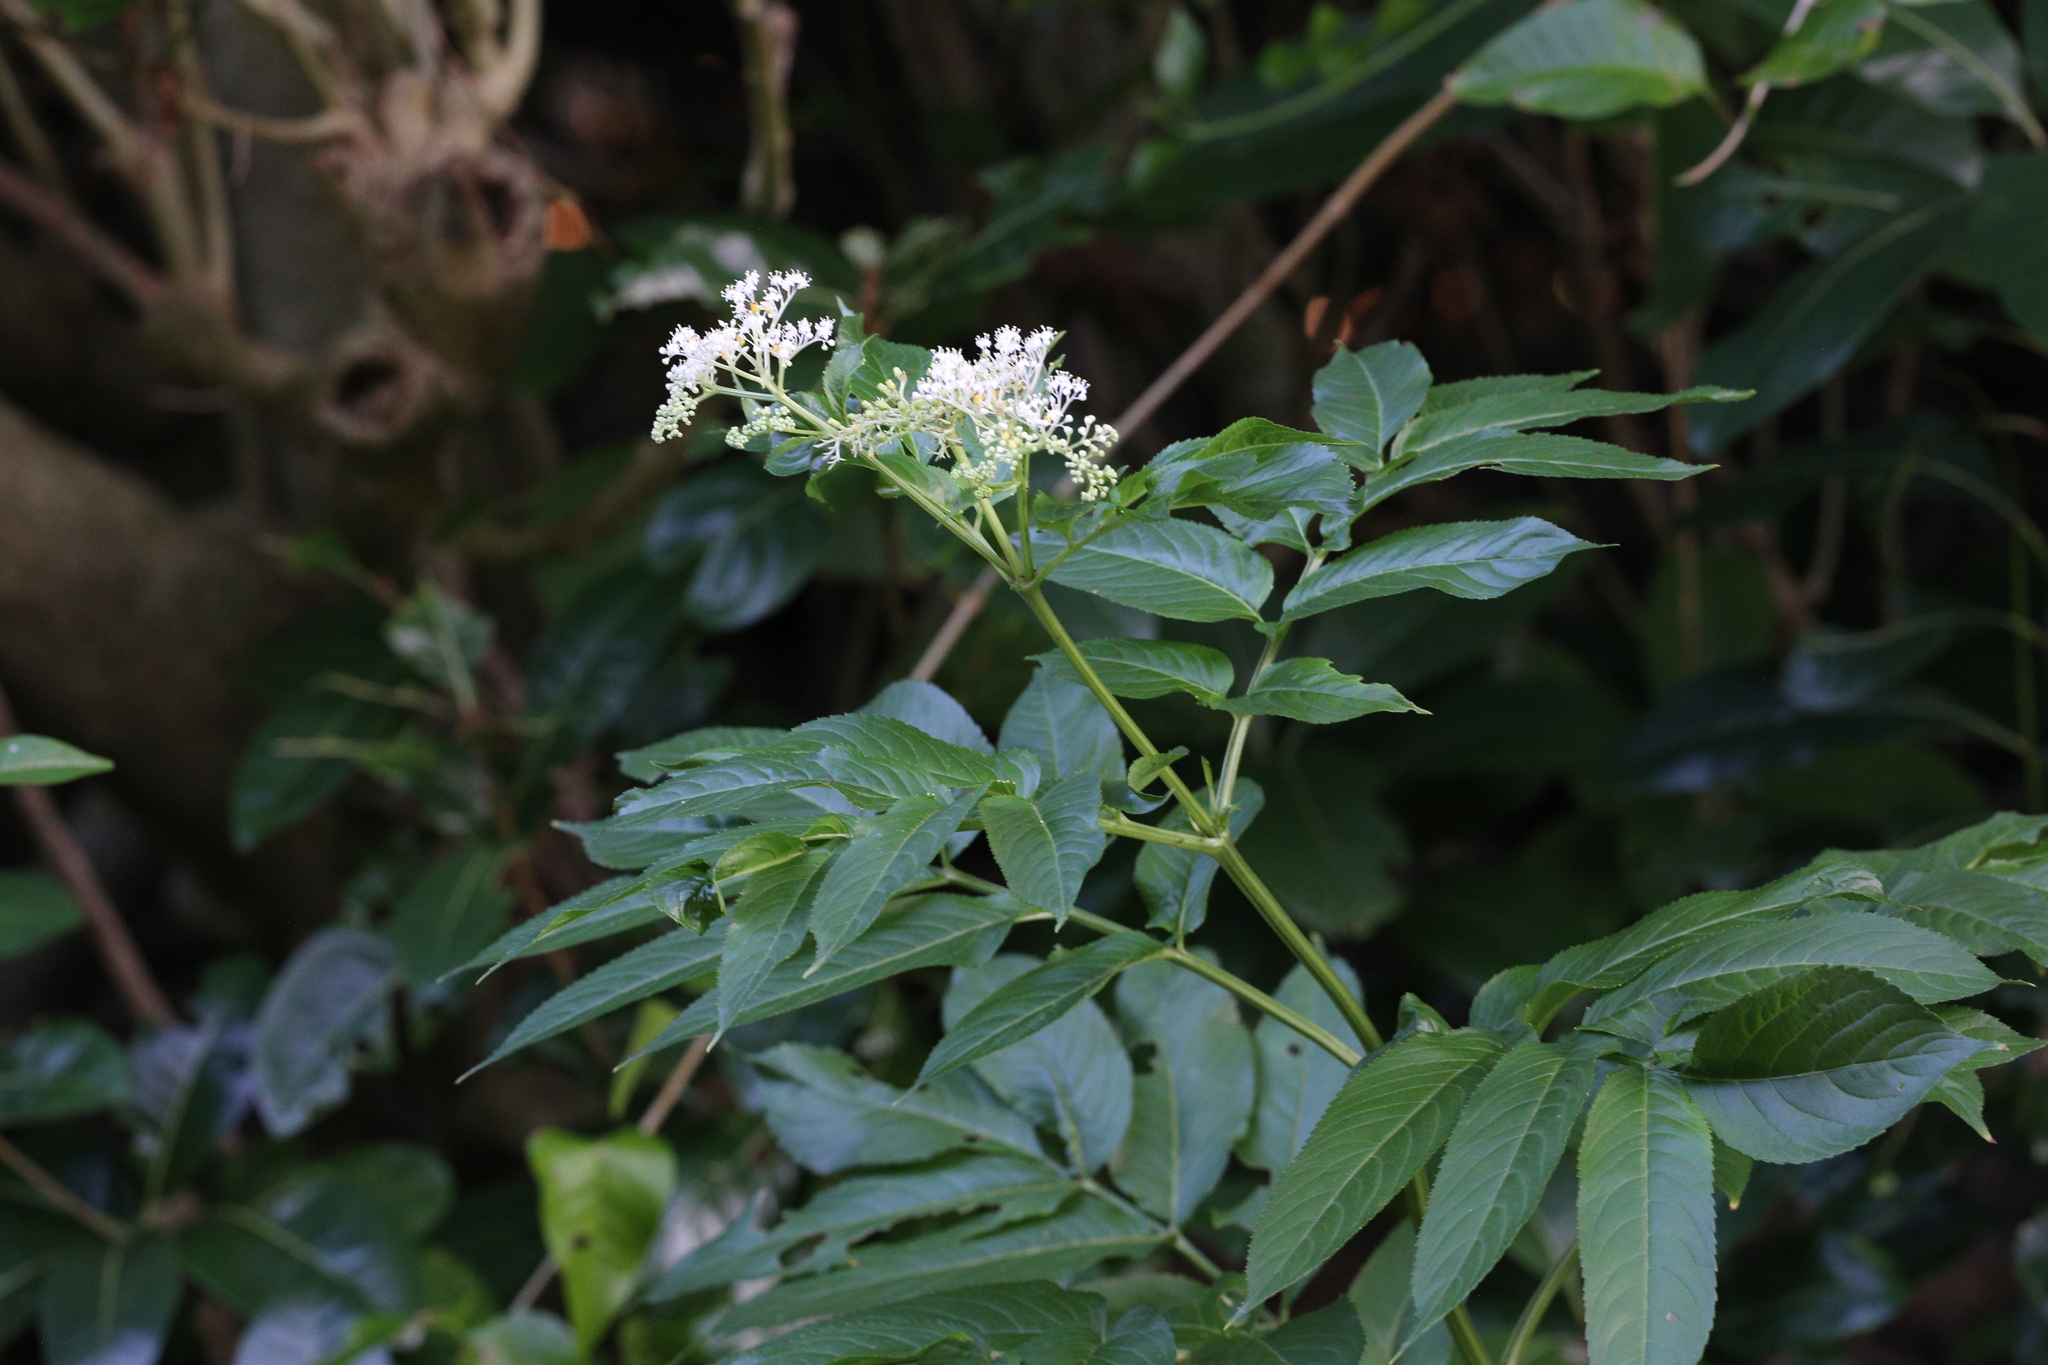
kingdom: Plantae
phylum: Tracheophyta
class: Magnoliopsida
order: Dipsacales
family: Viburnaceae
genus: Sambucus
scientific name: Sambucus javanica
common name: Chinese elder
